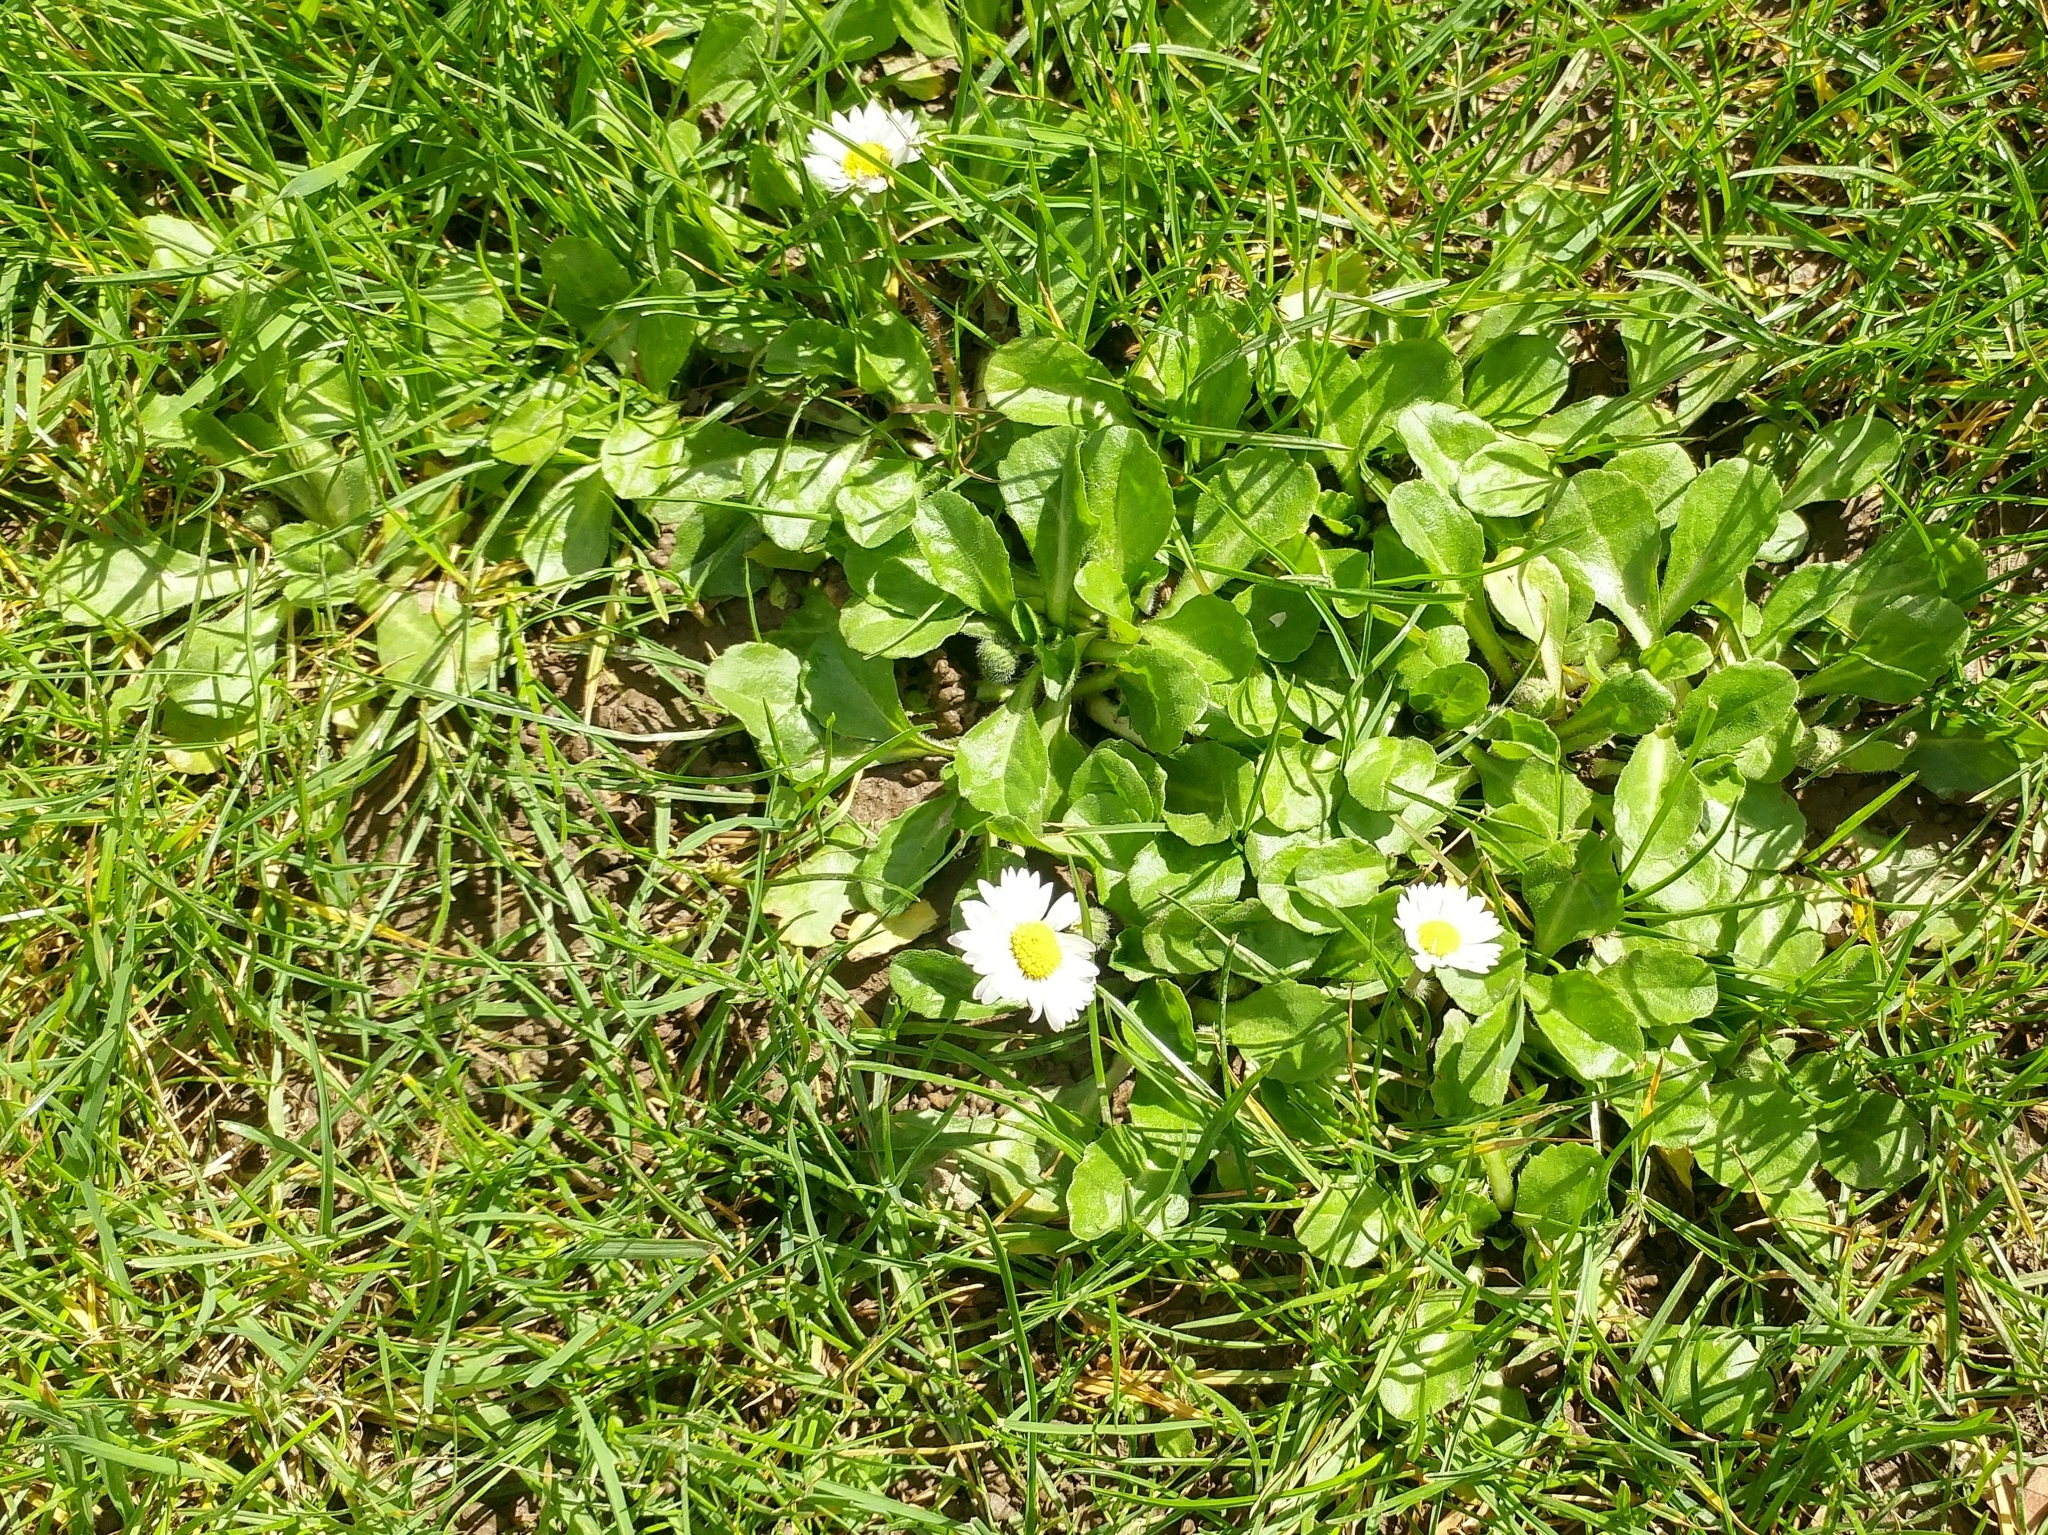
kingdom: Plantae
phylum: Tracheophyta
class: Magnoliopsida
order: Asterales
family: Asteraceae
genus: Bellis
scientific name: Bellis perennis
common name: Lawndaisy
